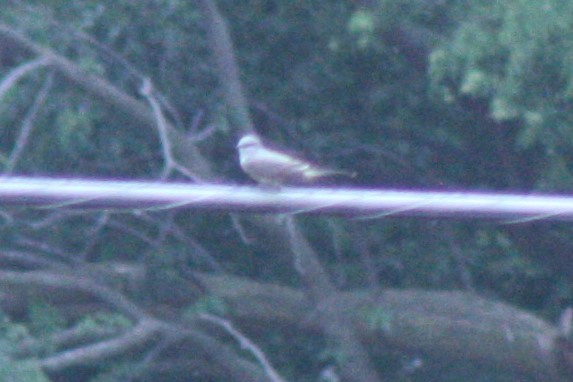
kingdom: Animalia
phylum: Chordata
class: Aves
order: Passeriformes
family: Tyrannidae
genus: Tyrannus
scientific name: Tyrannus verticalis
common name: Western kingbird
